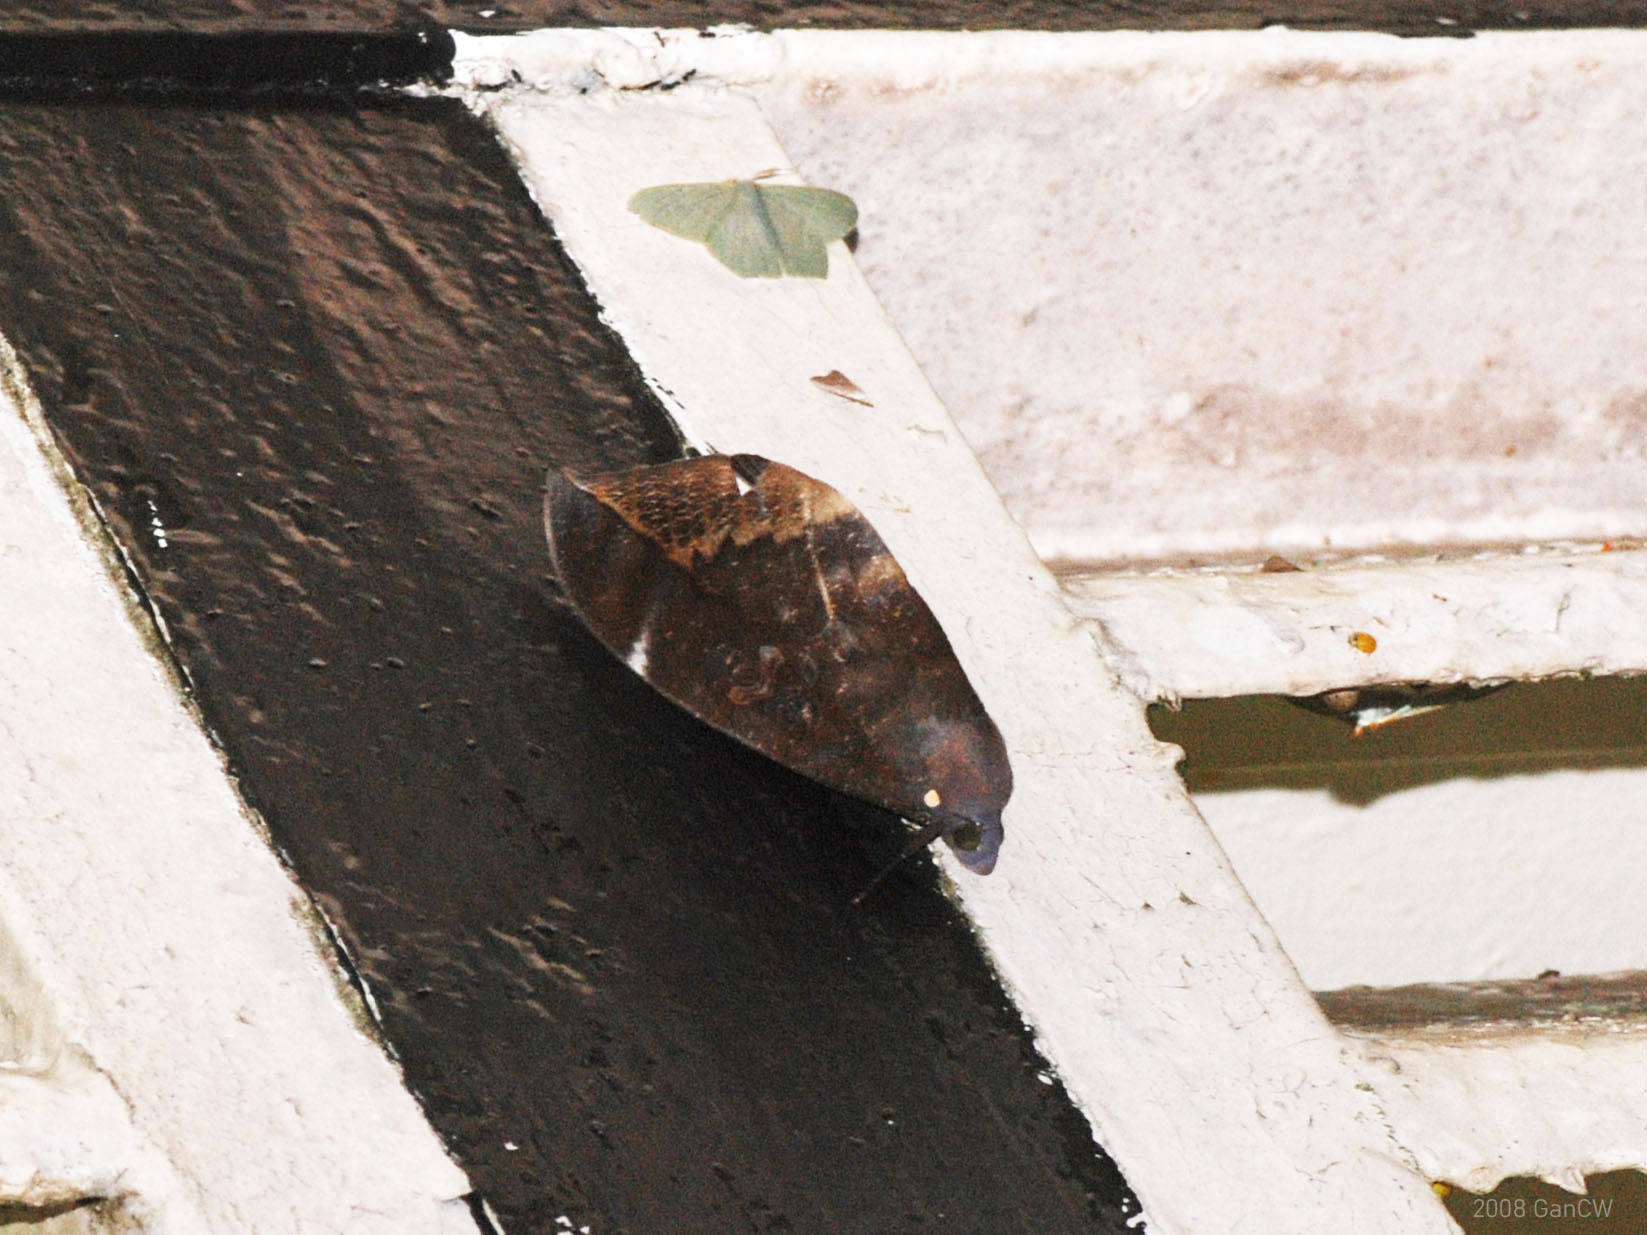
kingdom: Animalia
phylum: Arthropoda
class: Insecta
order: Lepidoptera
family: Erebidae
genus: Phyllodes
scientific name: Phyllodes verhuelli
